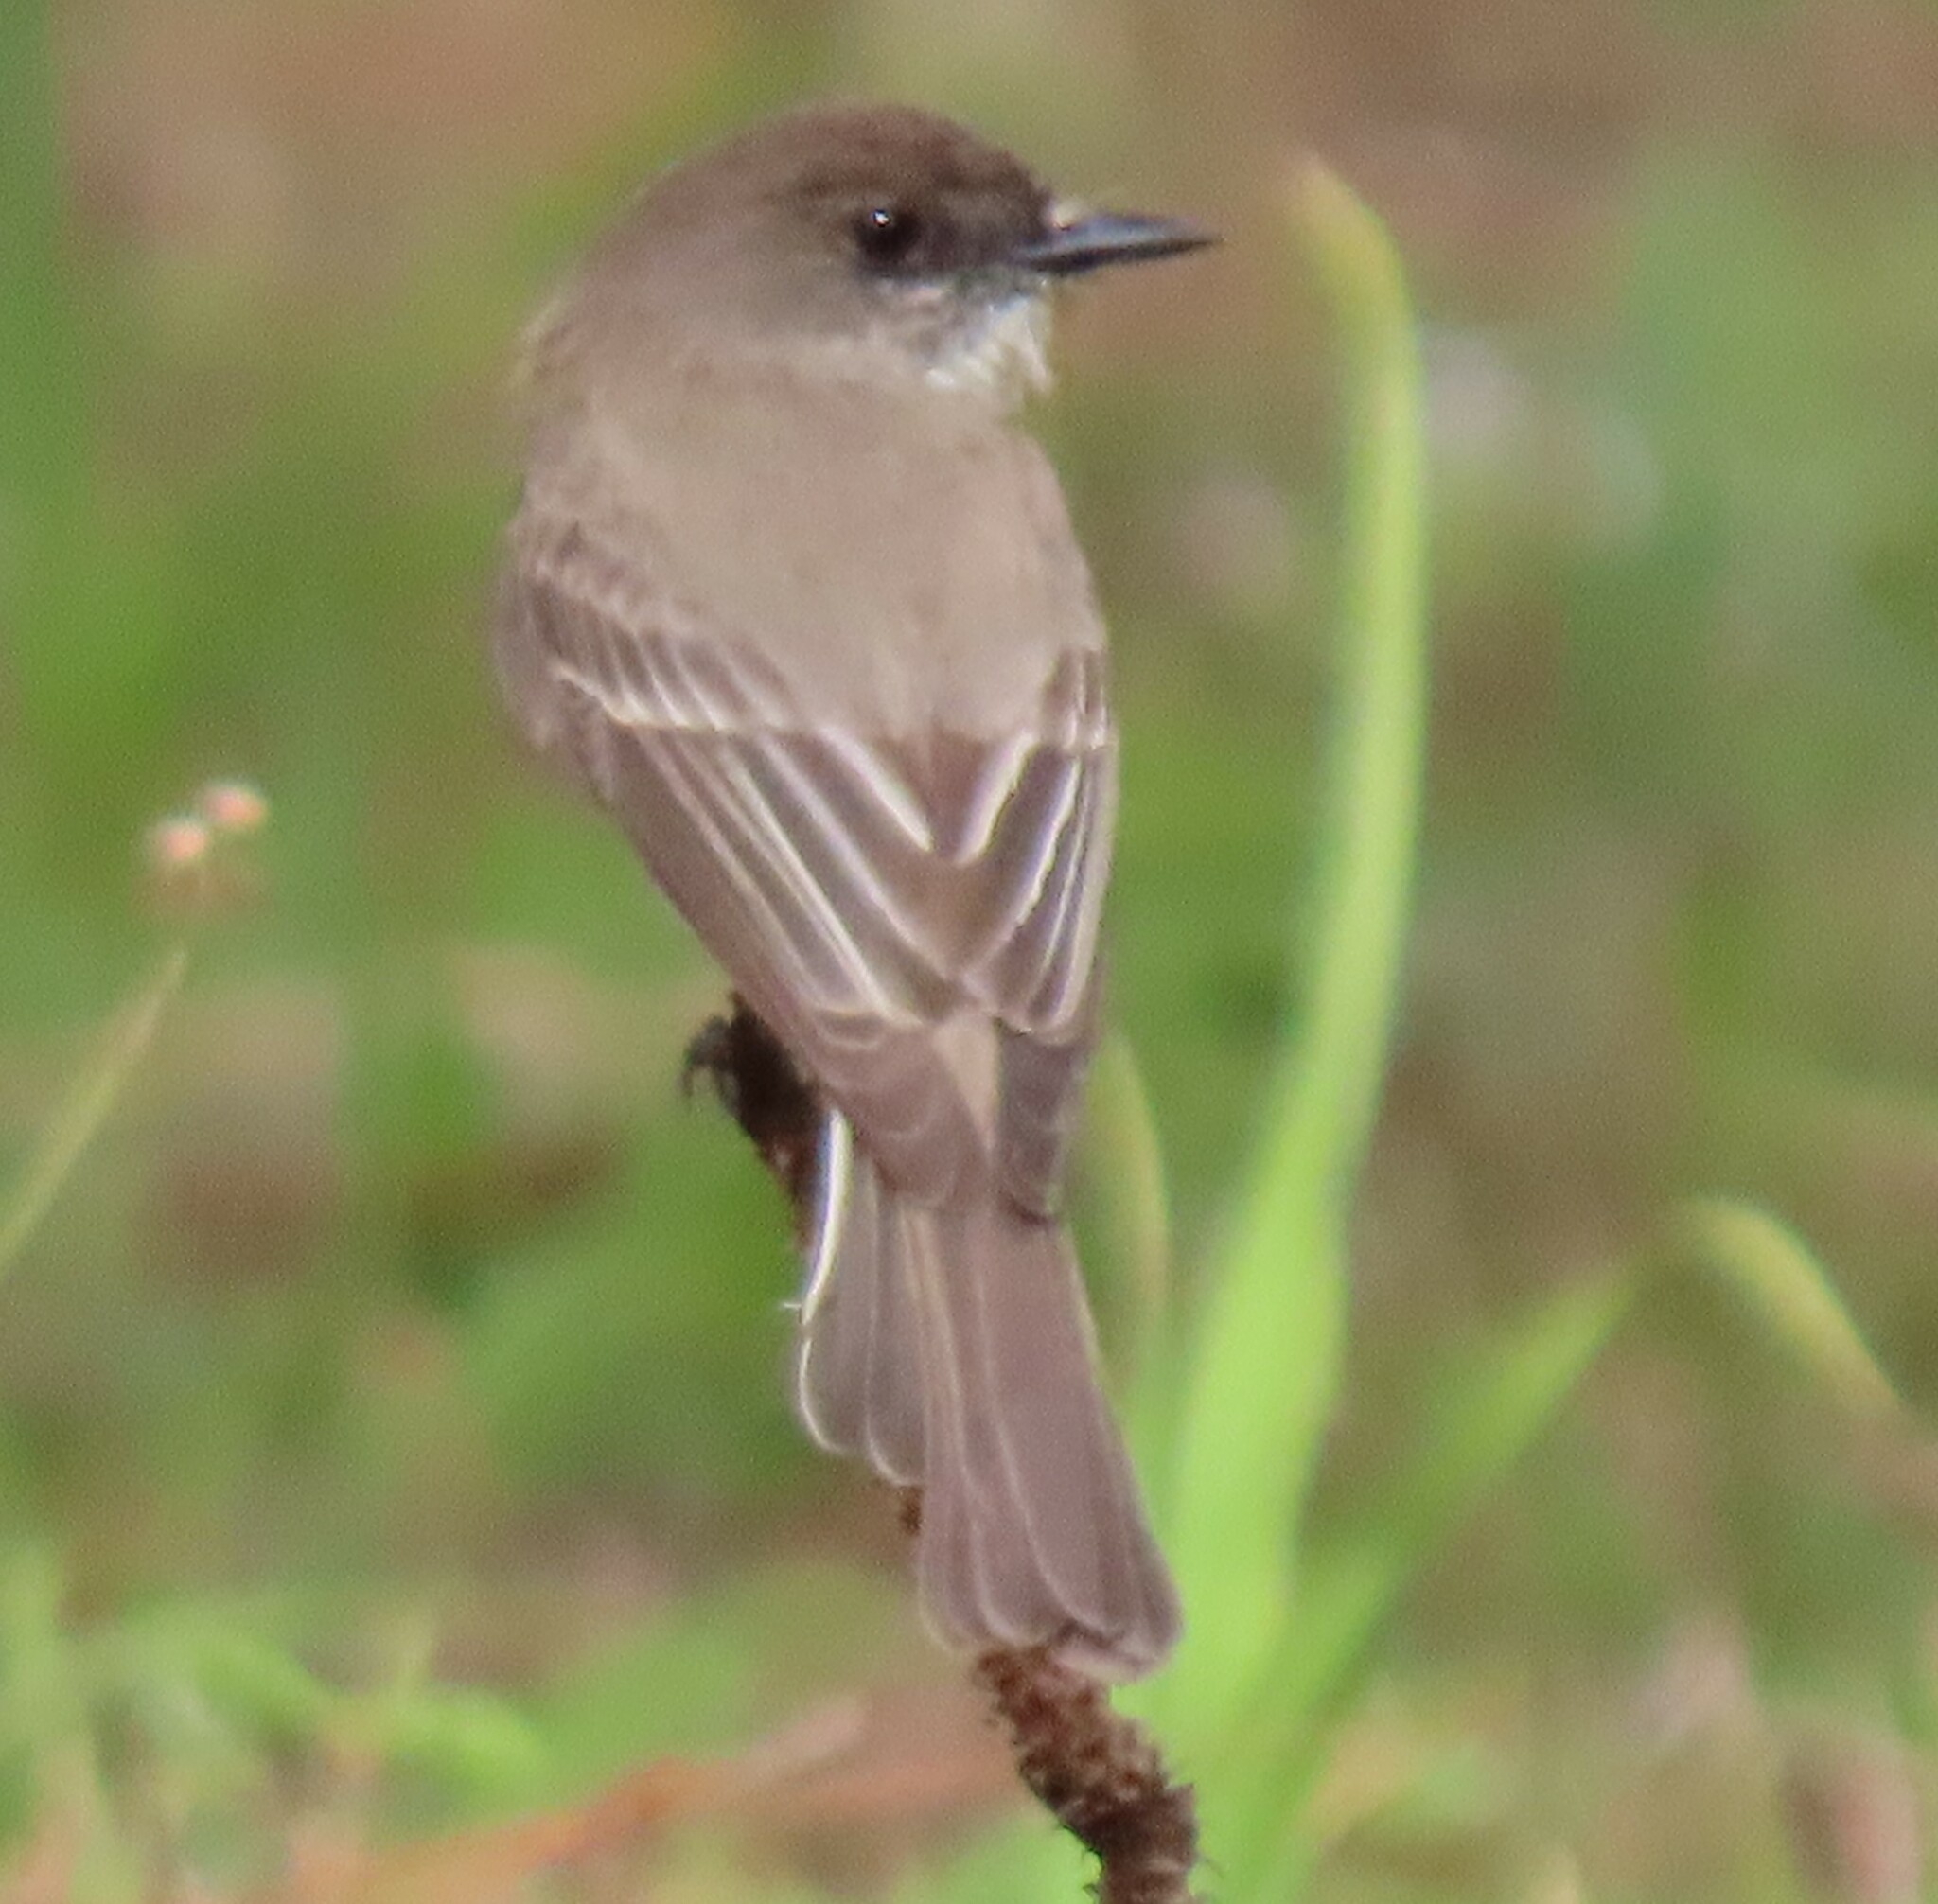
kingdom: Animalia
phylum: Chordata
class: Aves
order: Passeriformes
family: Tyrannidae
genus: Sayornis
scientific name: Sayornis phoebe
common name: Eastern phoebe
